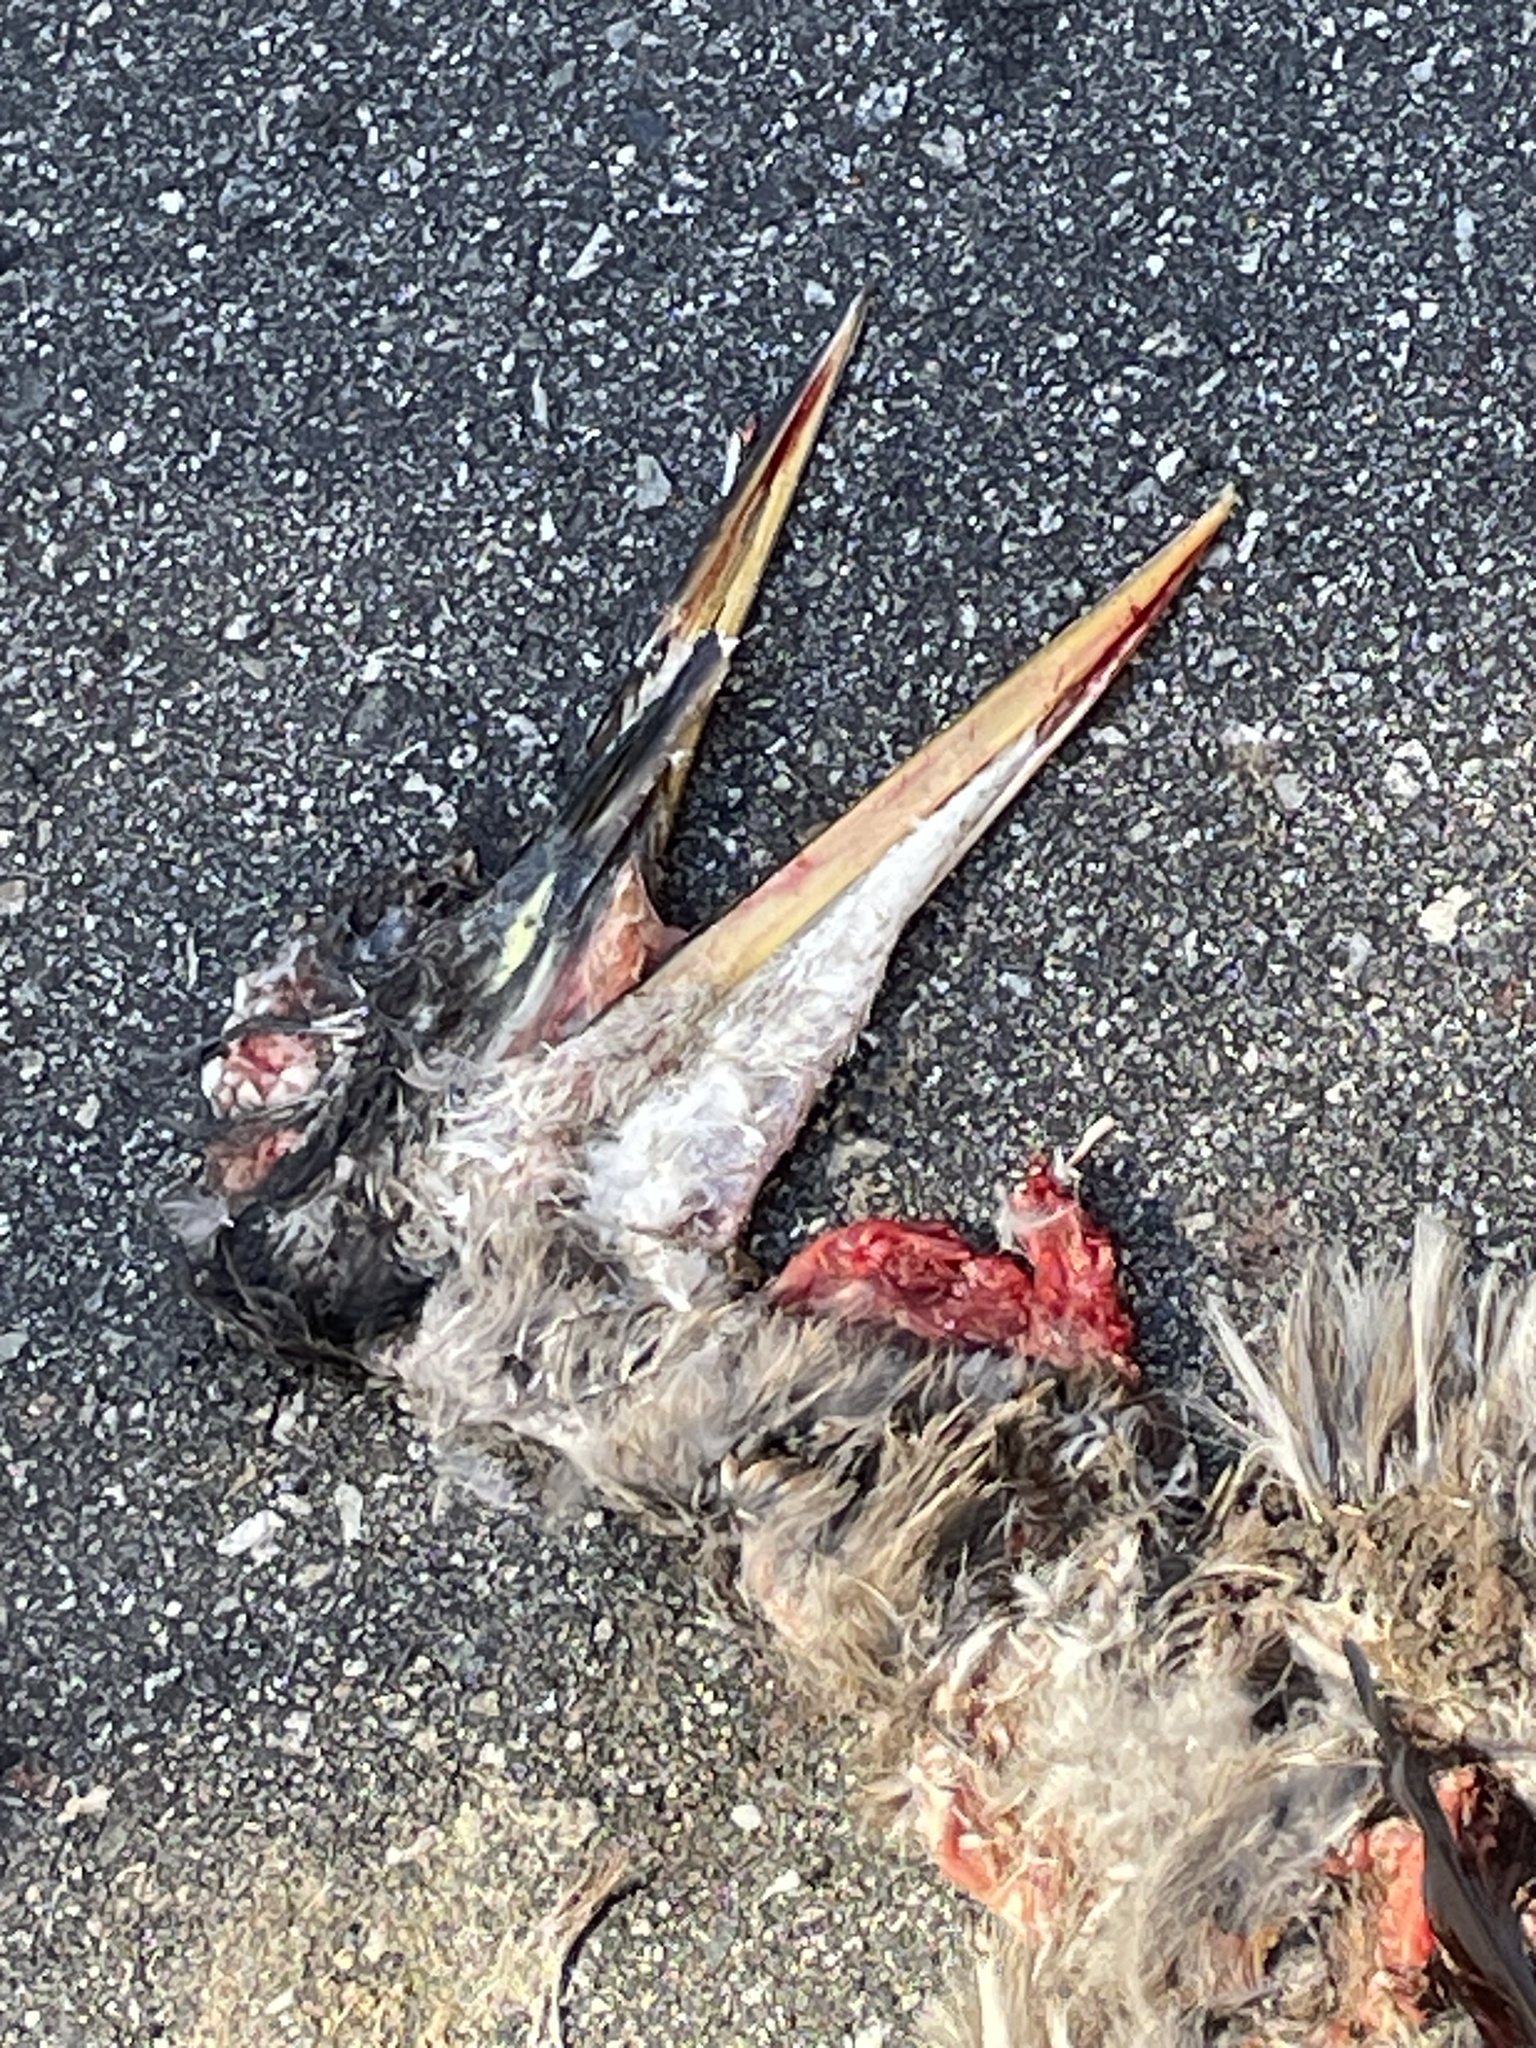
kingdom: Animalia
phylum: Chordata
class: Aves
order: Pelecaniformes
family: Ardeidae
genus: Ardea
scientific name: Ardea herodias
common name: Great blue heron
